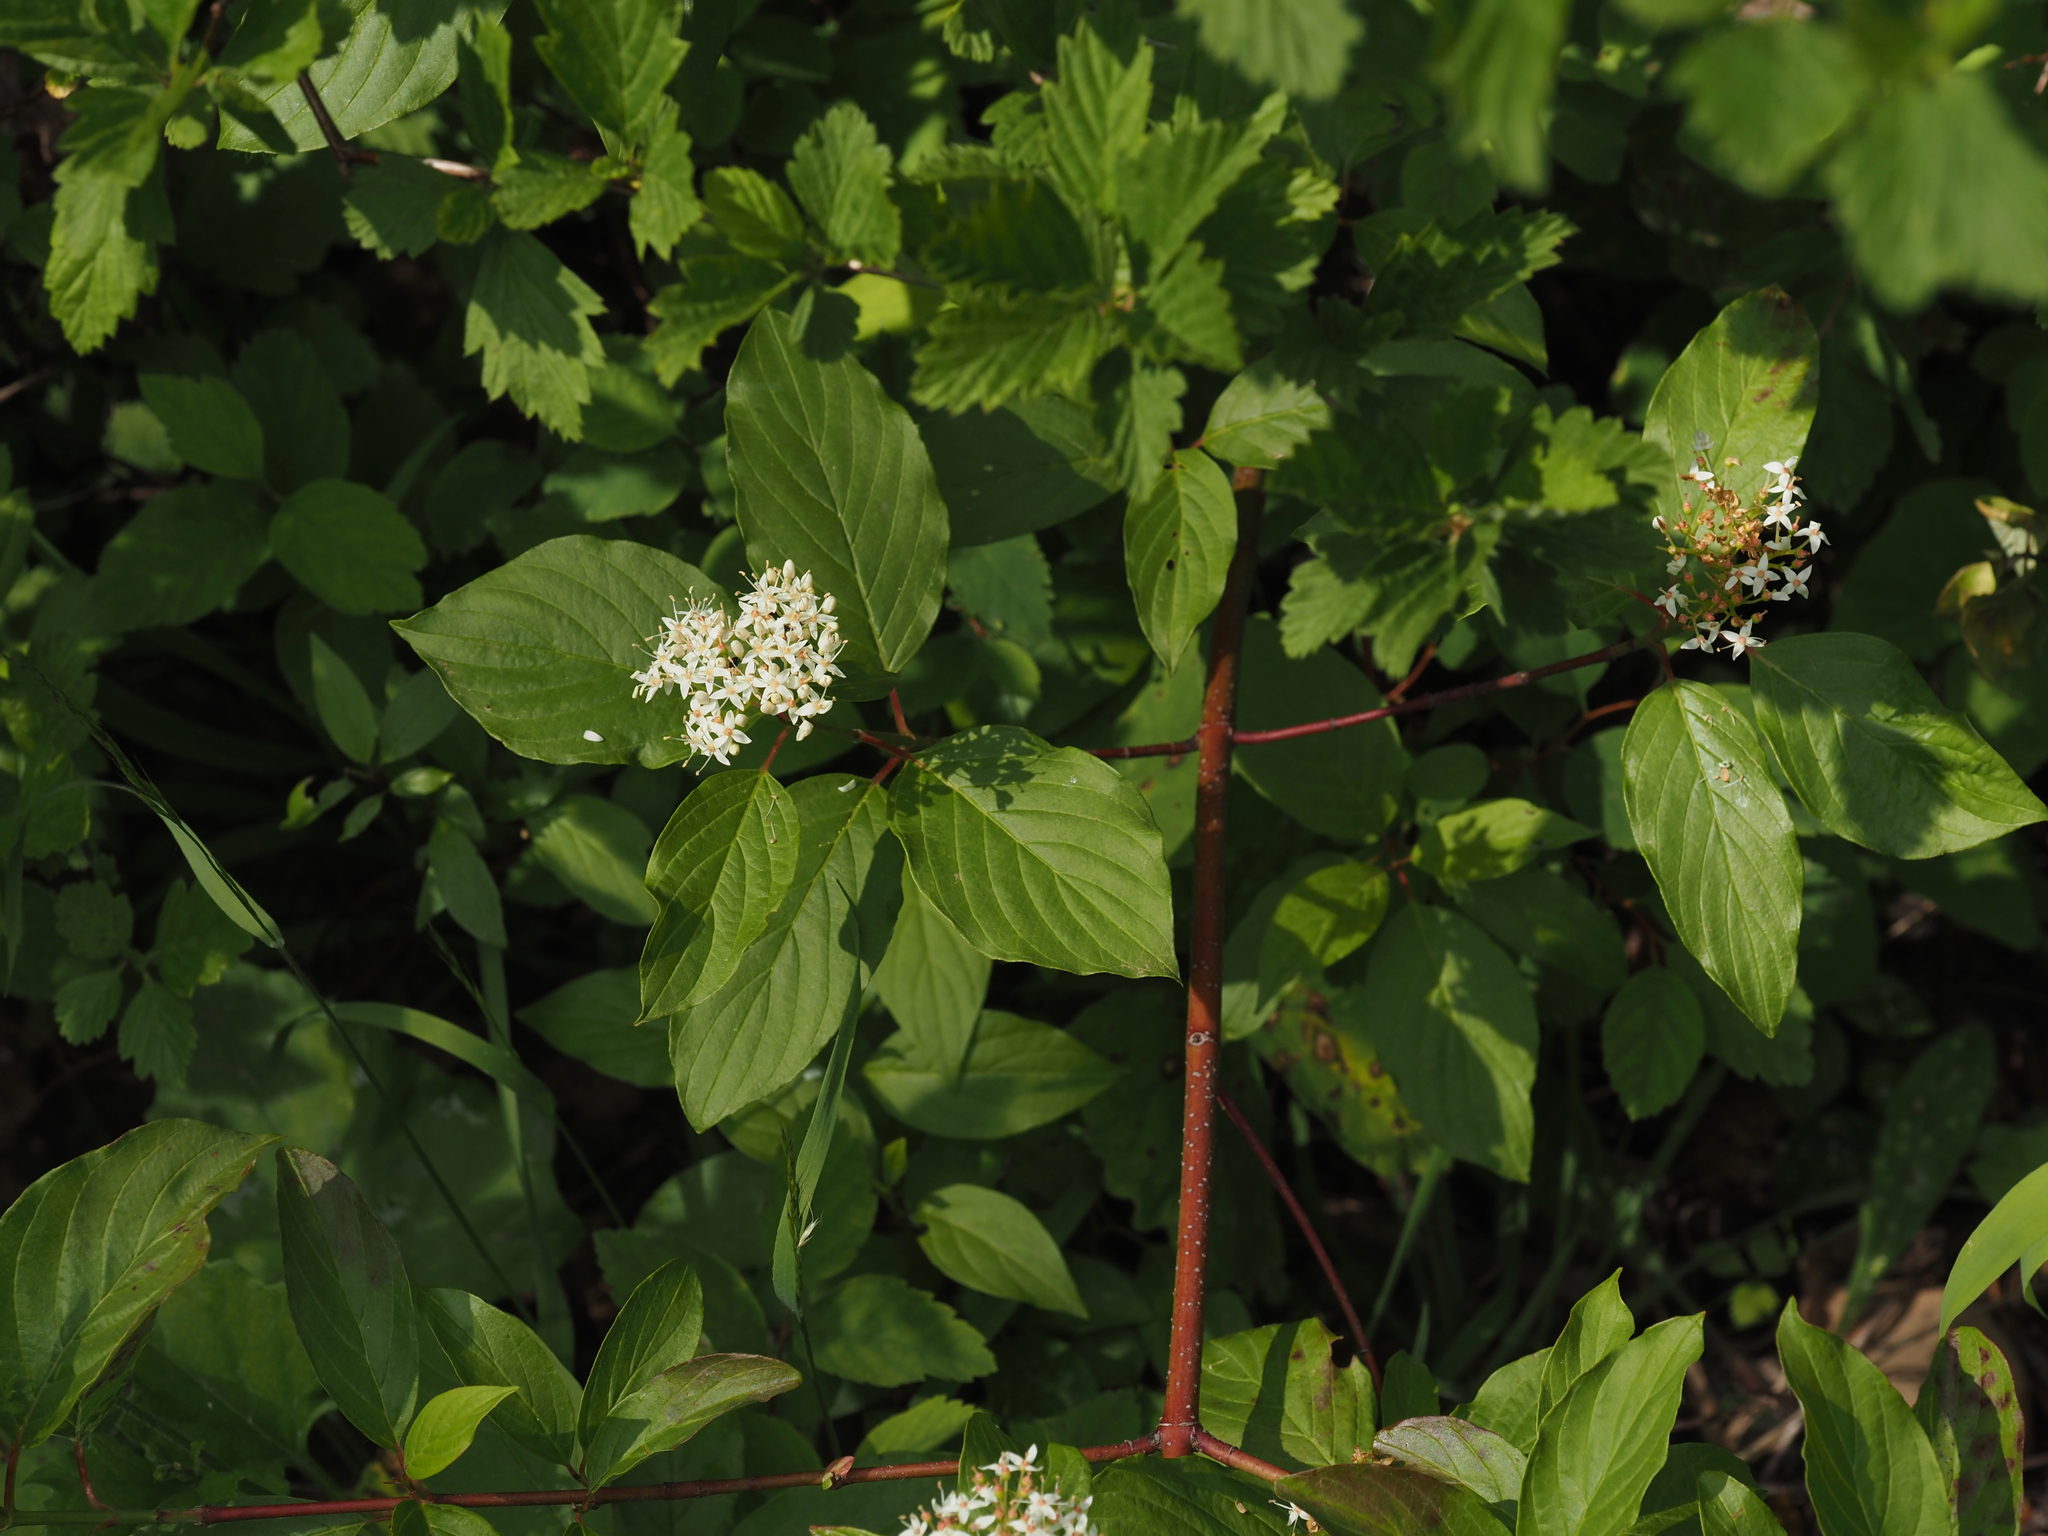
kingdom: Plantae
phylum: Tracheophyta
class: Magnoliopsida
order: Cornales
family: Cornaceae
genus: Cornus
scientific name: Cornus sericea
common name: Red-osier dogwood
